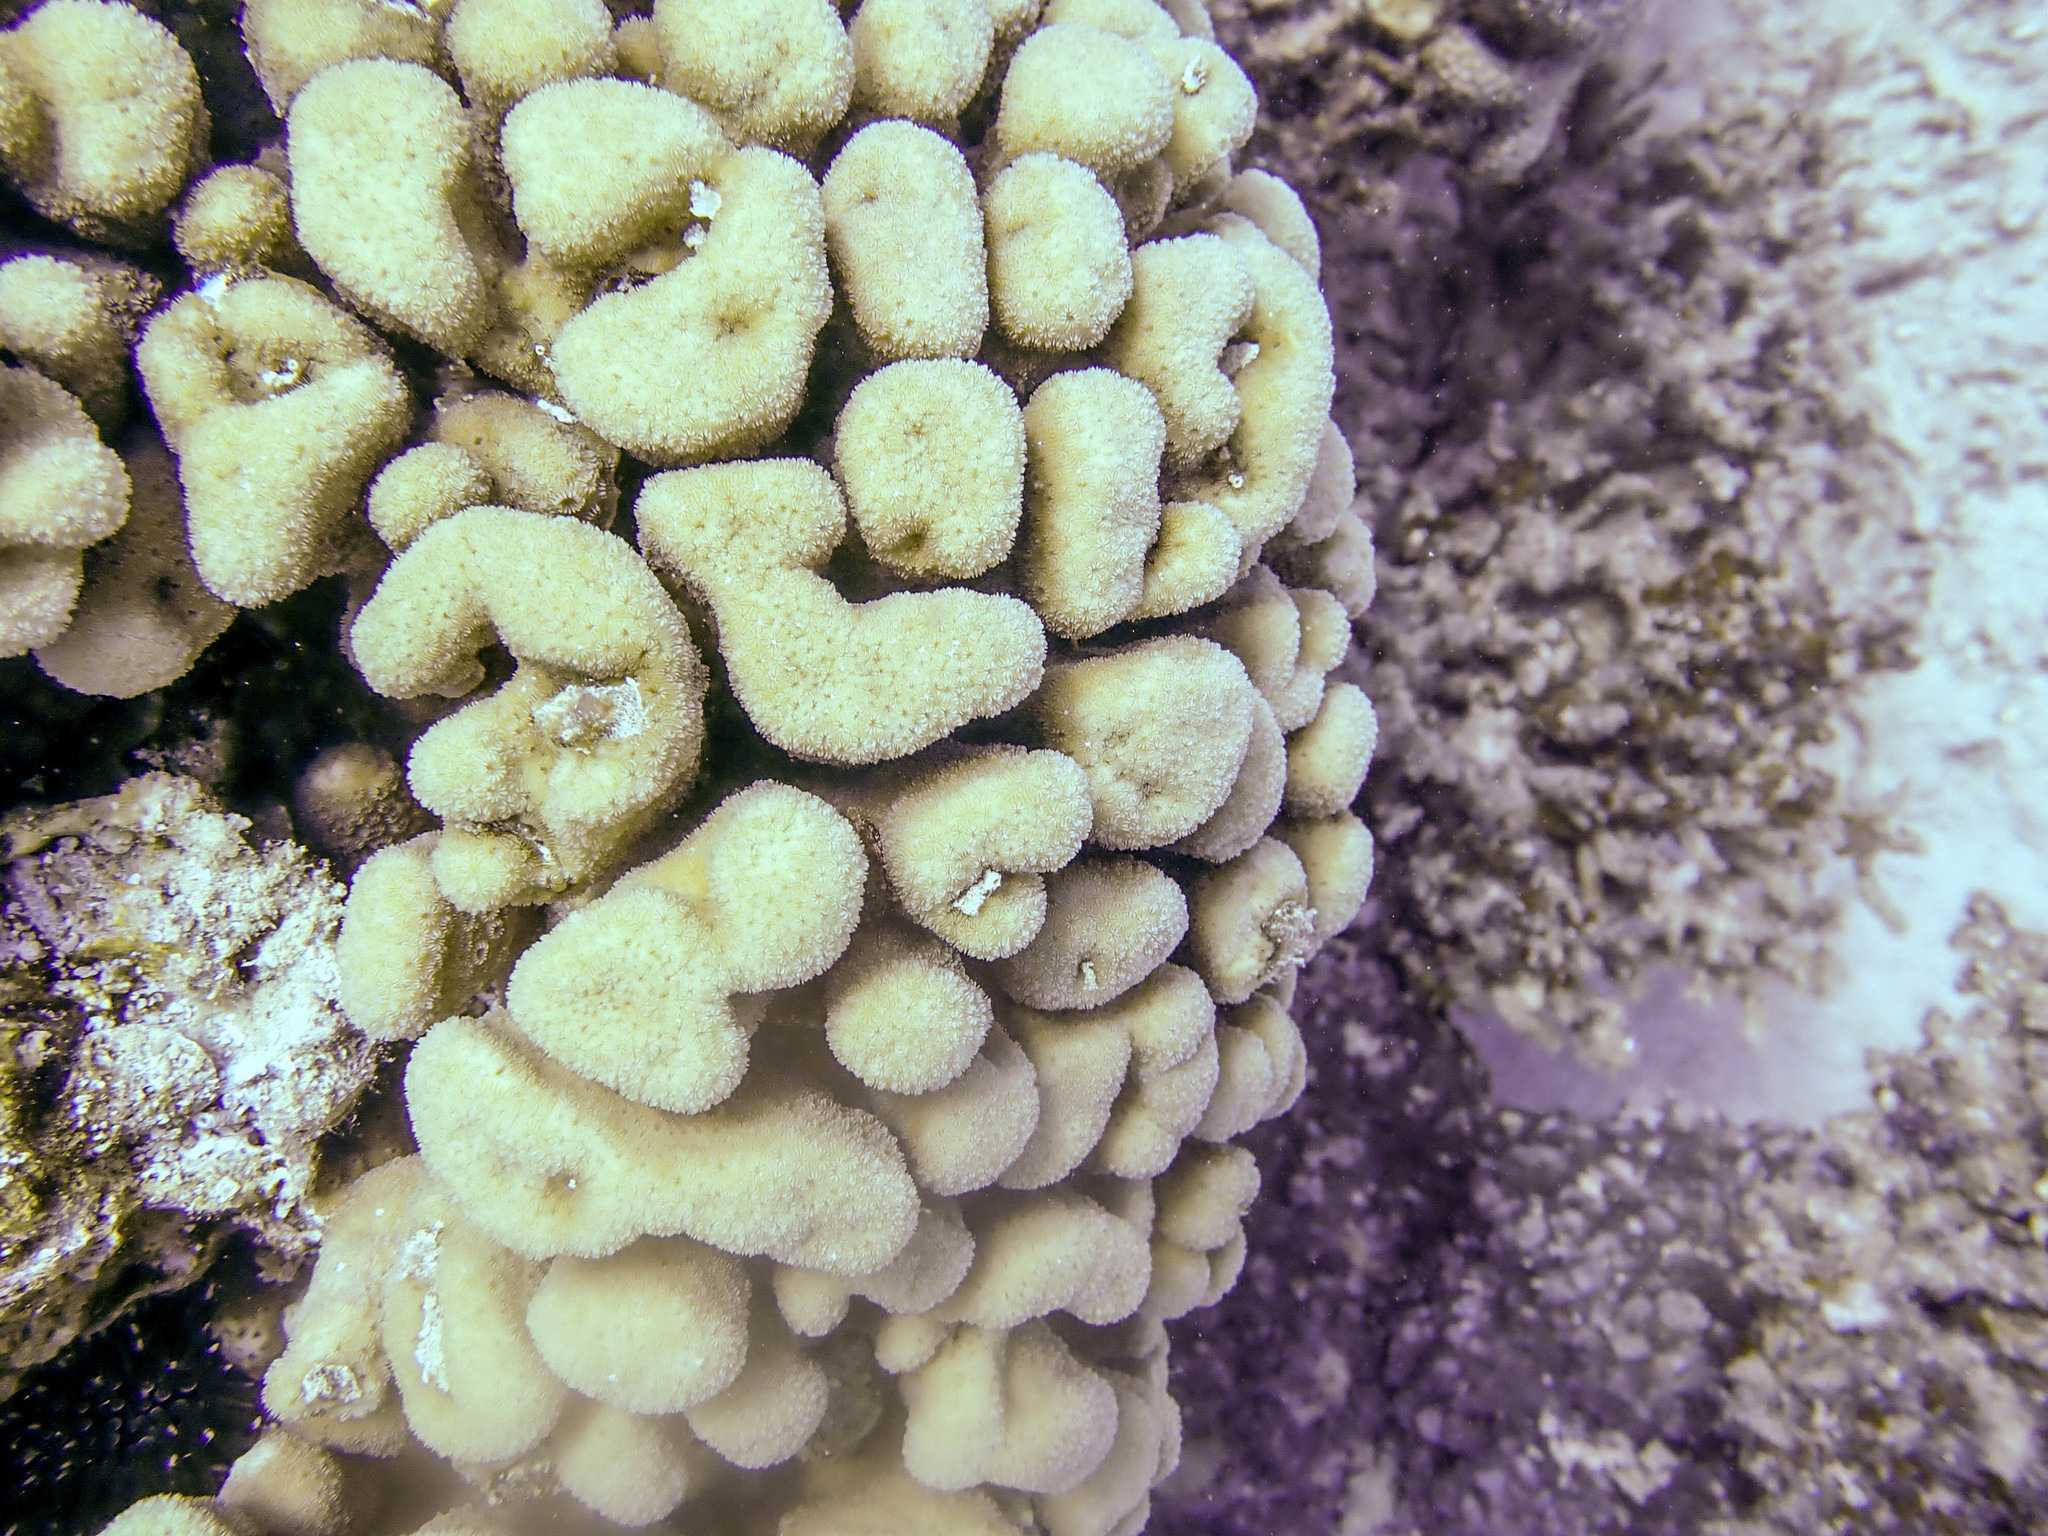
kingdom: Animalia
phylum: Cnidaria
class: Anthozoa
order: Scleractinia
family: Agariciidae
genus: Pavona
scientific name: Pavona maldivensis
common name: Leaf coral
